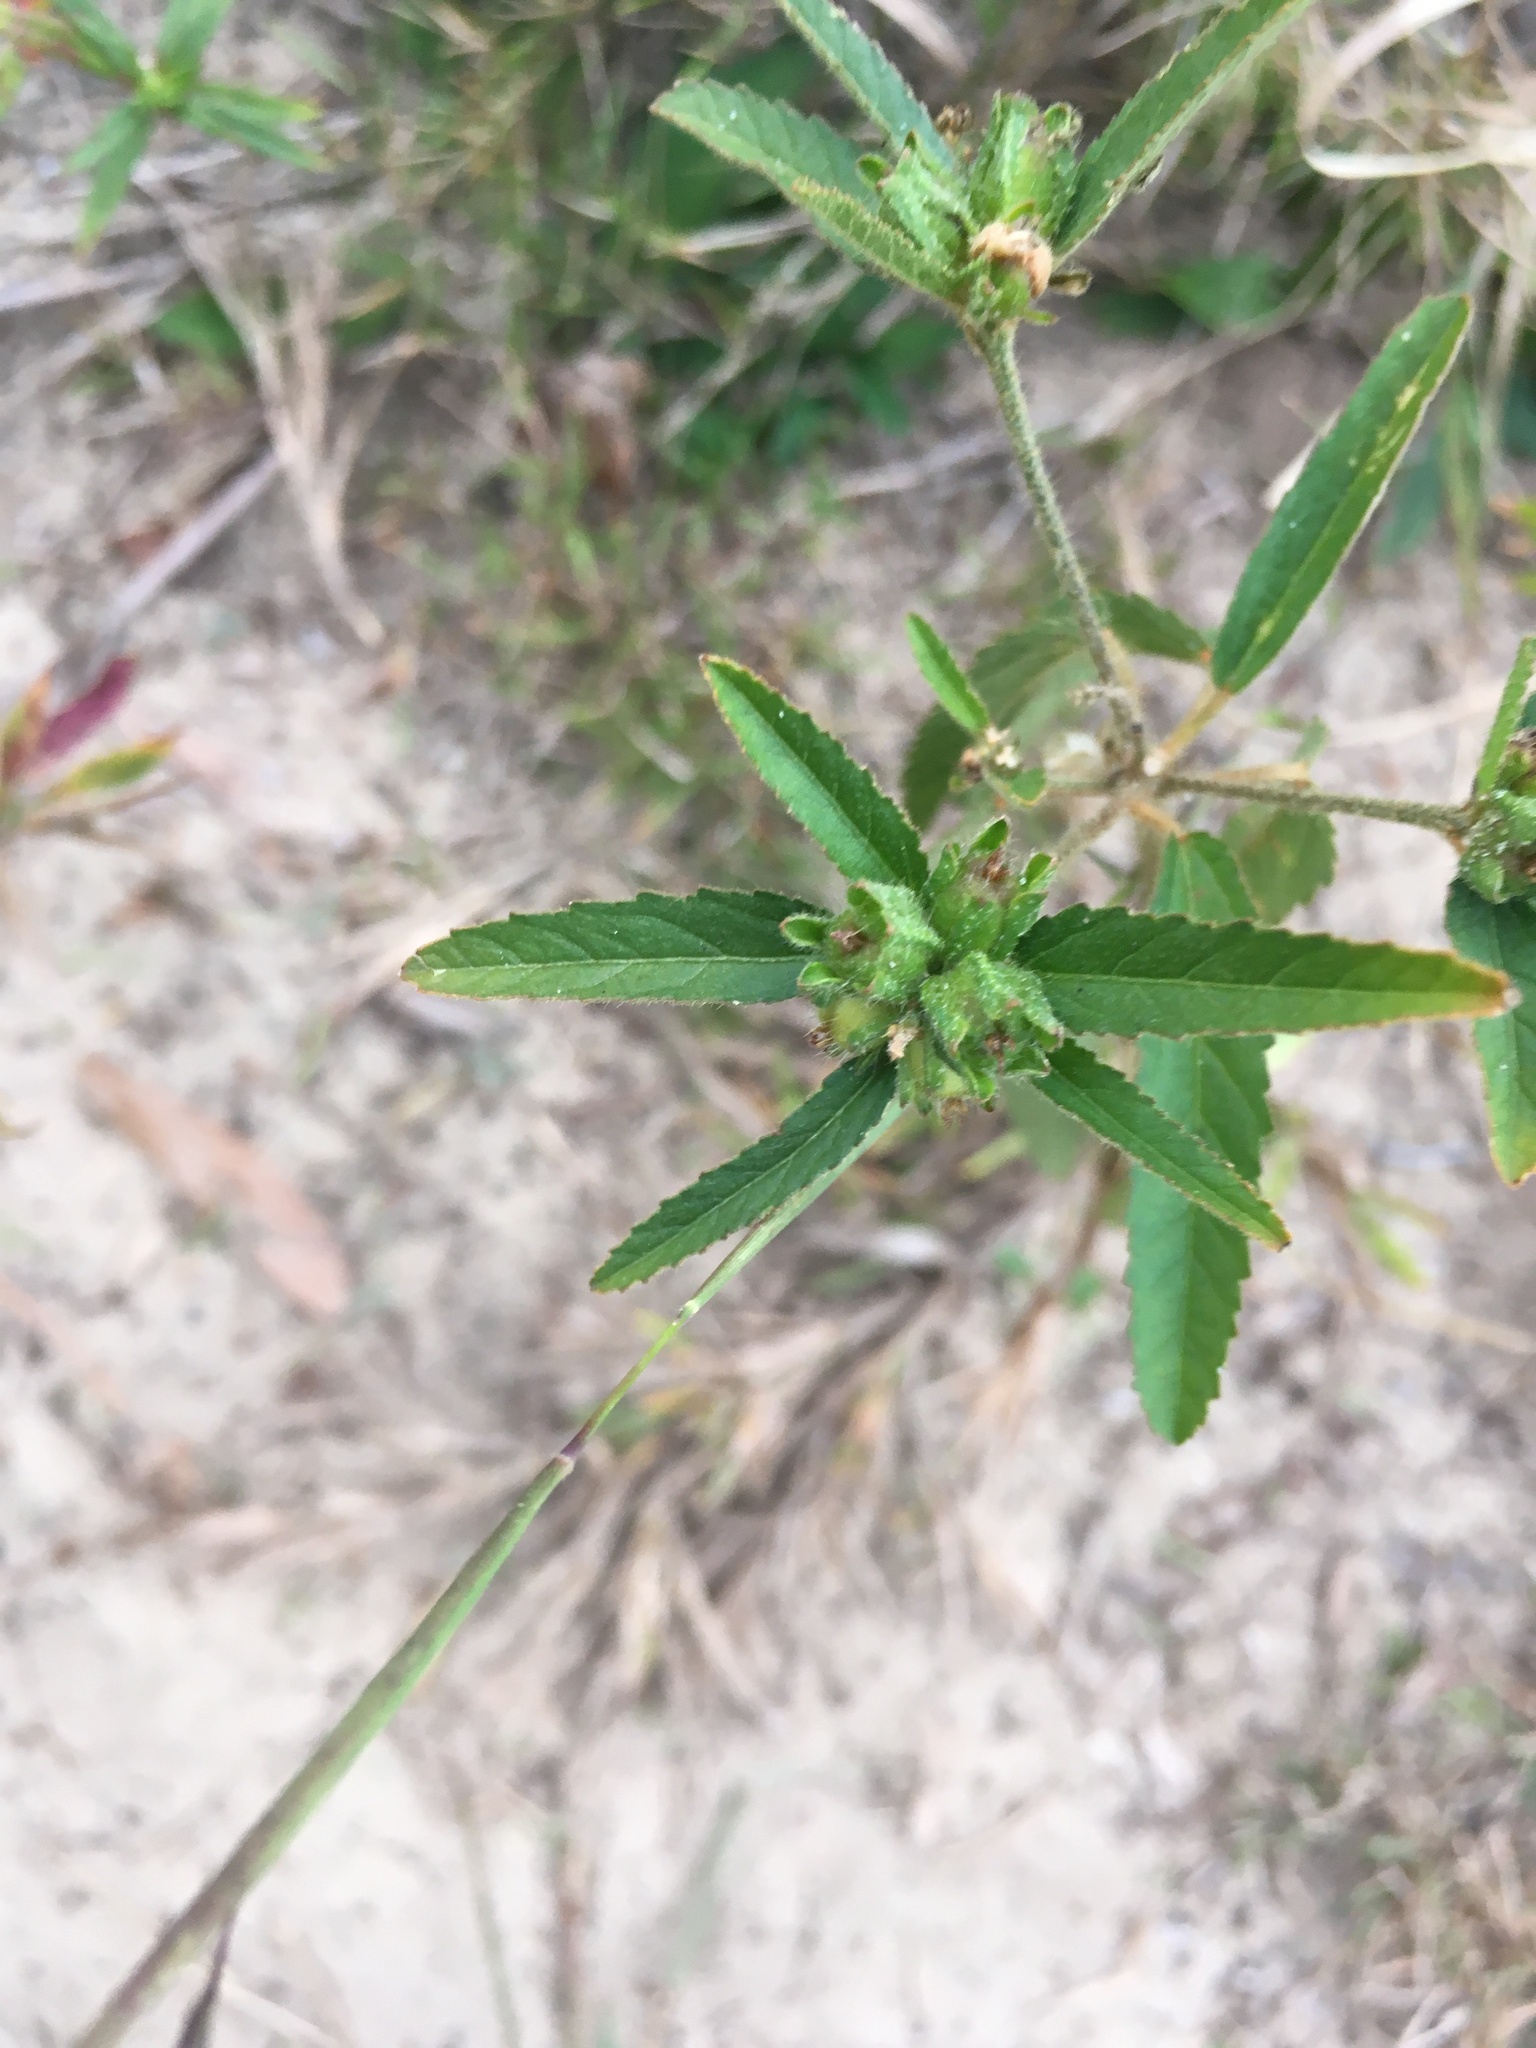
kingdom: Plantae
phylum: Tracheophyta
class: Magnoliopsida
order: Malpighiales
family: Euphorbiaceae
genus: Croton
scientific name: Croton glandulosus
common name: Tropic croton
